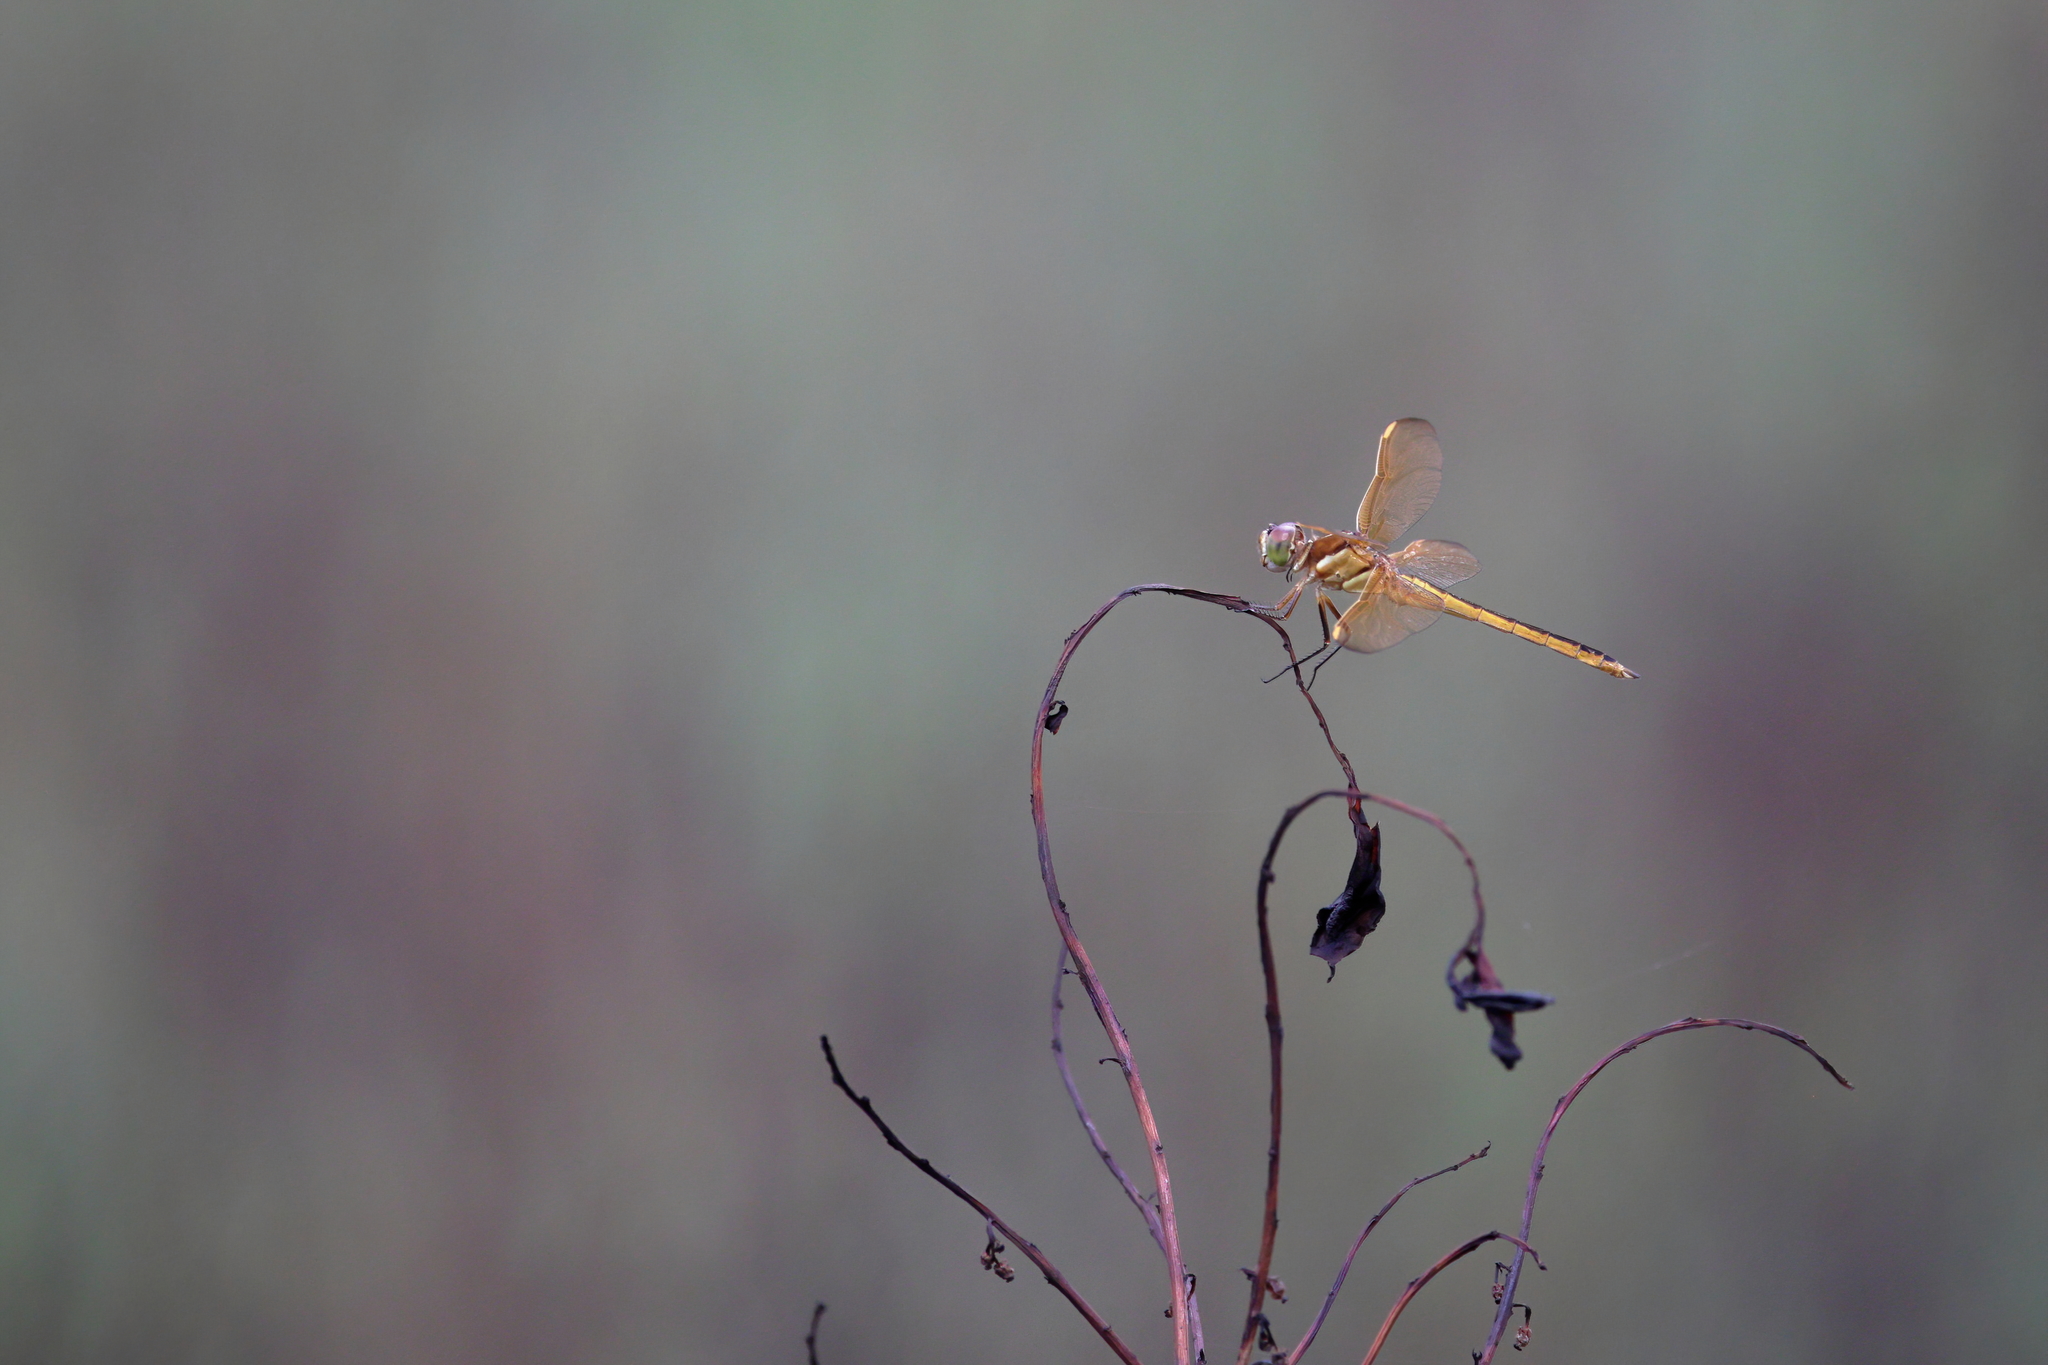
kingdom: Animalia
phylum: Arthropoda
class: Insecta
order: Odonata
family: Libellulidae
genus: Libellula
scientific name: Libellula auripennis
